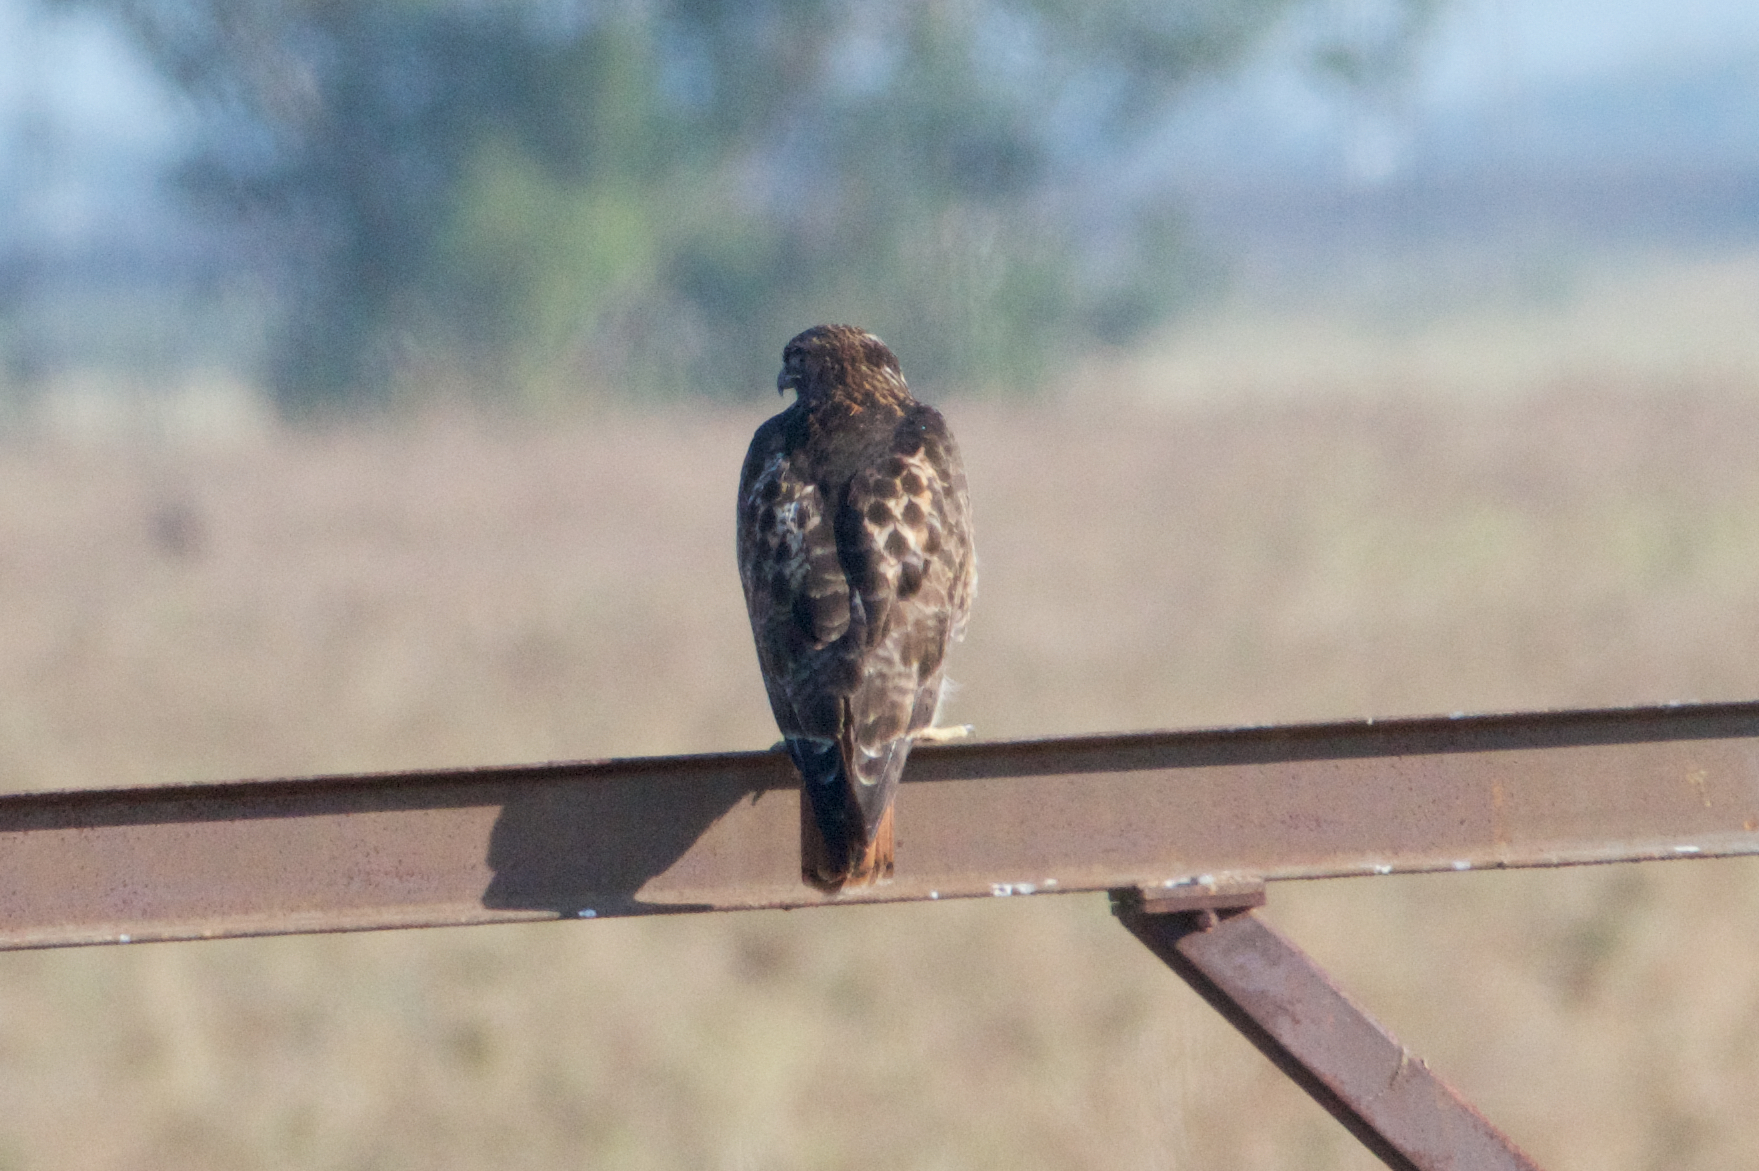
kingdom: Animalia
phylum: Chordata
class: Aves
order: Accipitriformes
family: Accipitridae
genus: Buteo
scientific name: Buteo jamaicensis
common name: Red-tailed hawk
